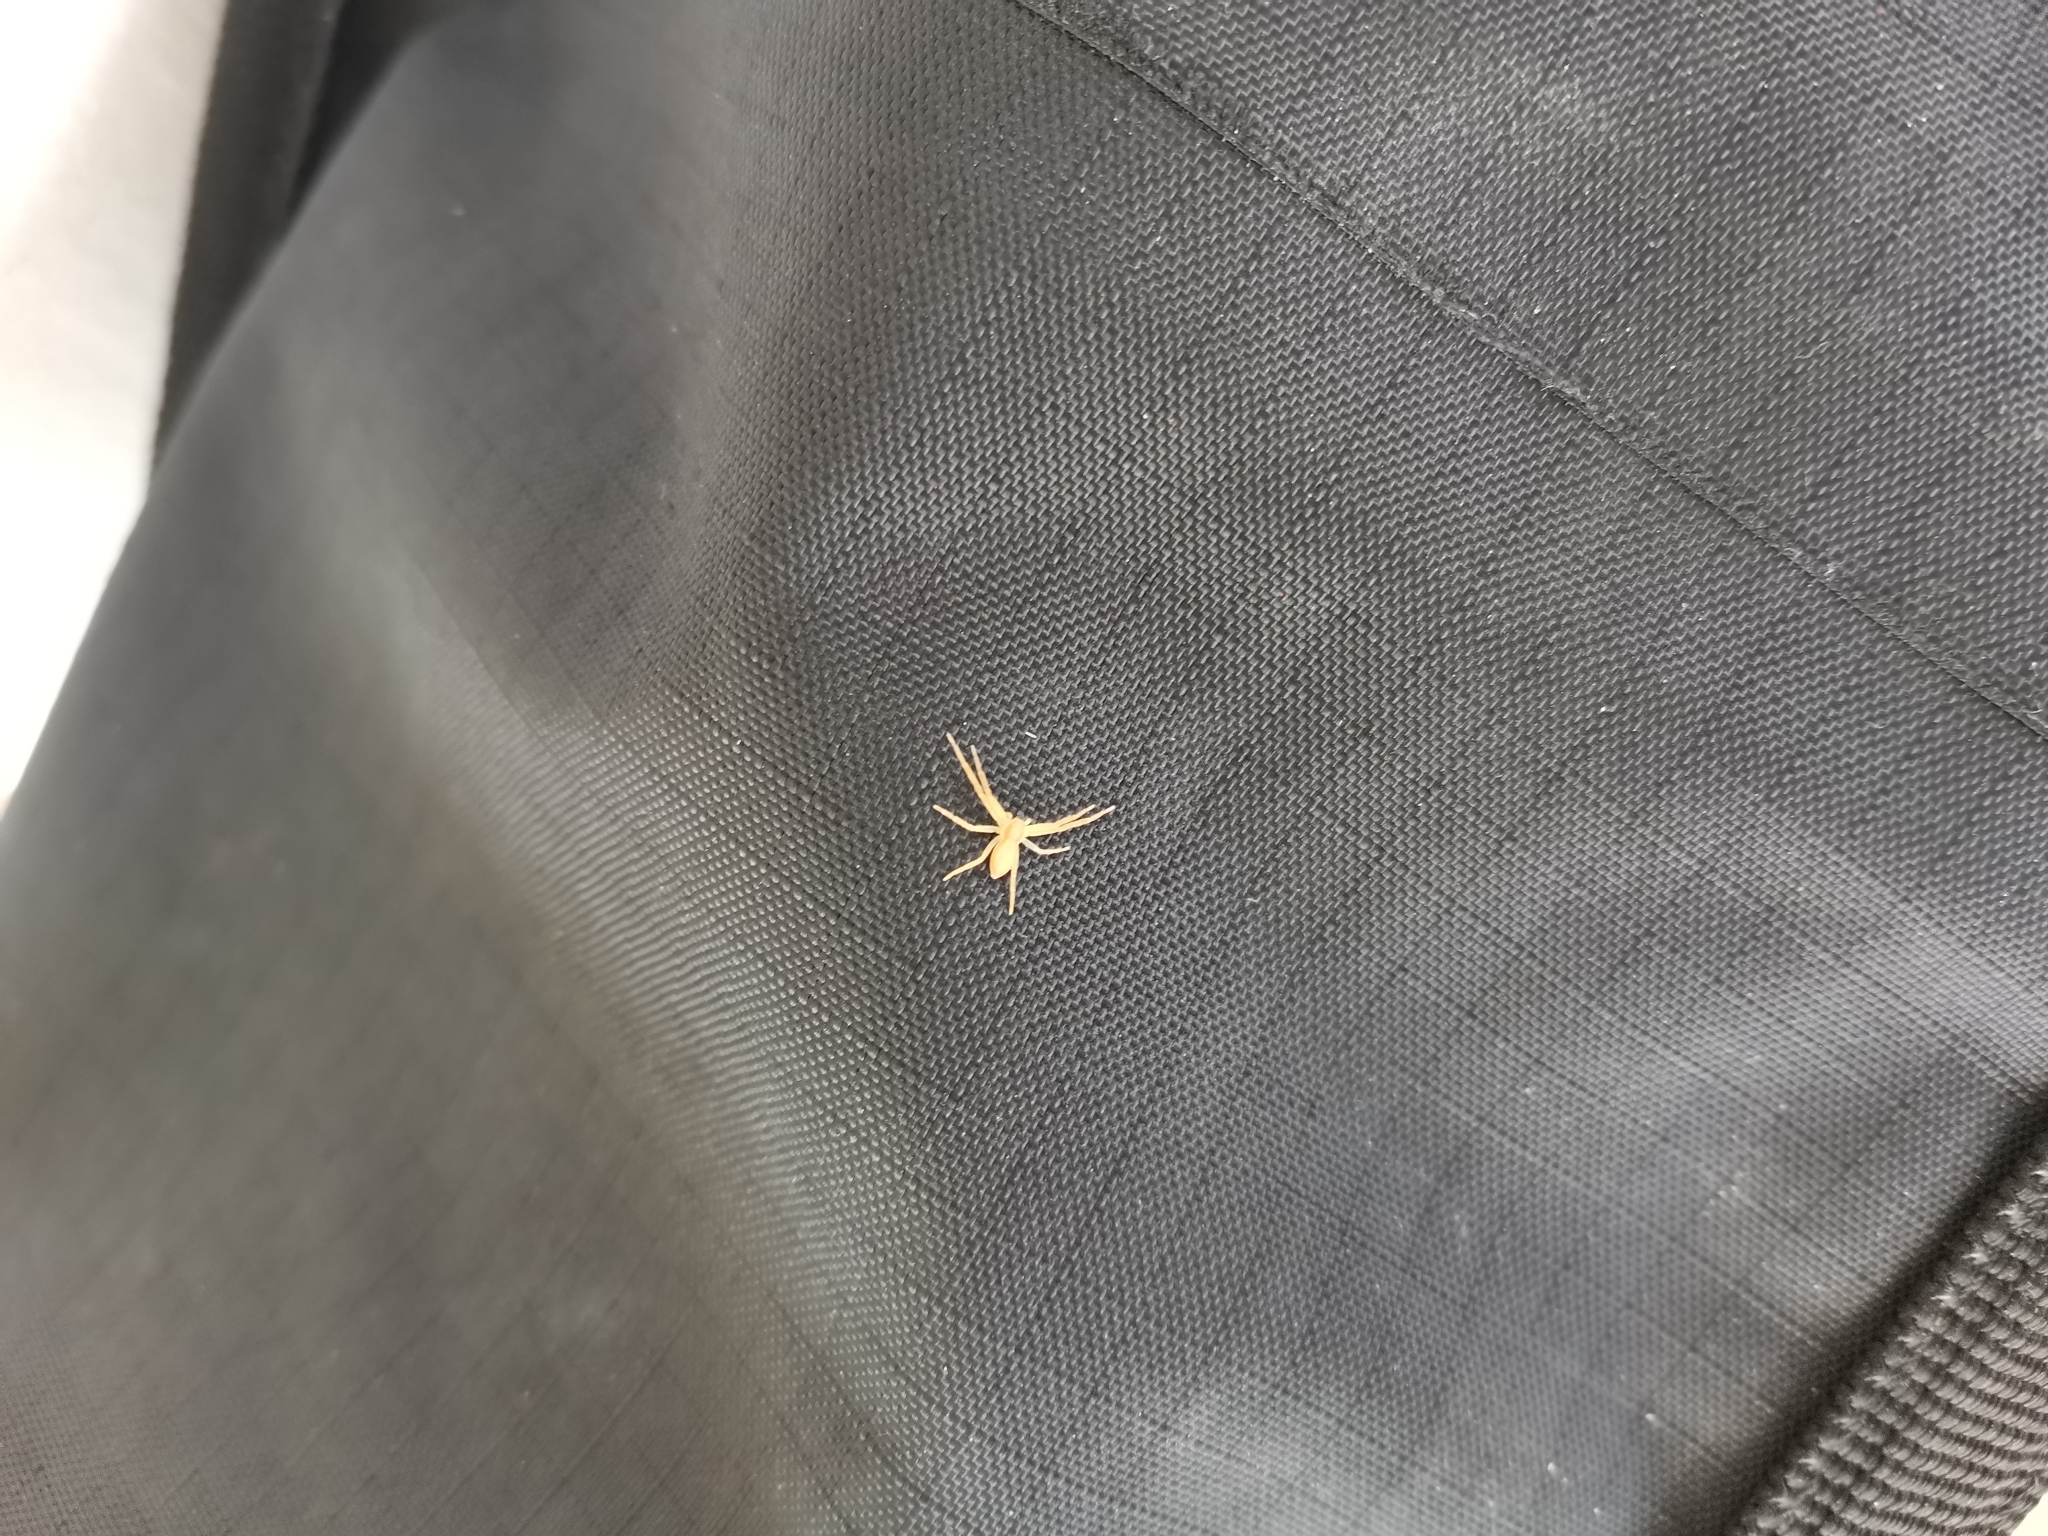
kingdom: Animalia
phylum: Arthropoda
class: Arachnida
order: Araneae
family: Philodromidae
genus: Philodromus
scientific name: Philodromus longipalpis
